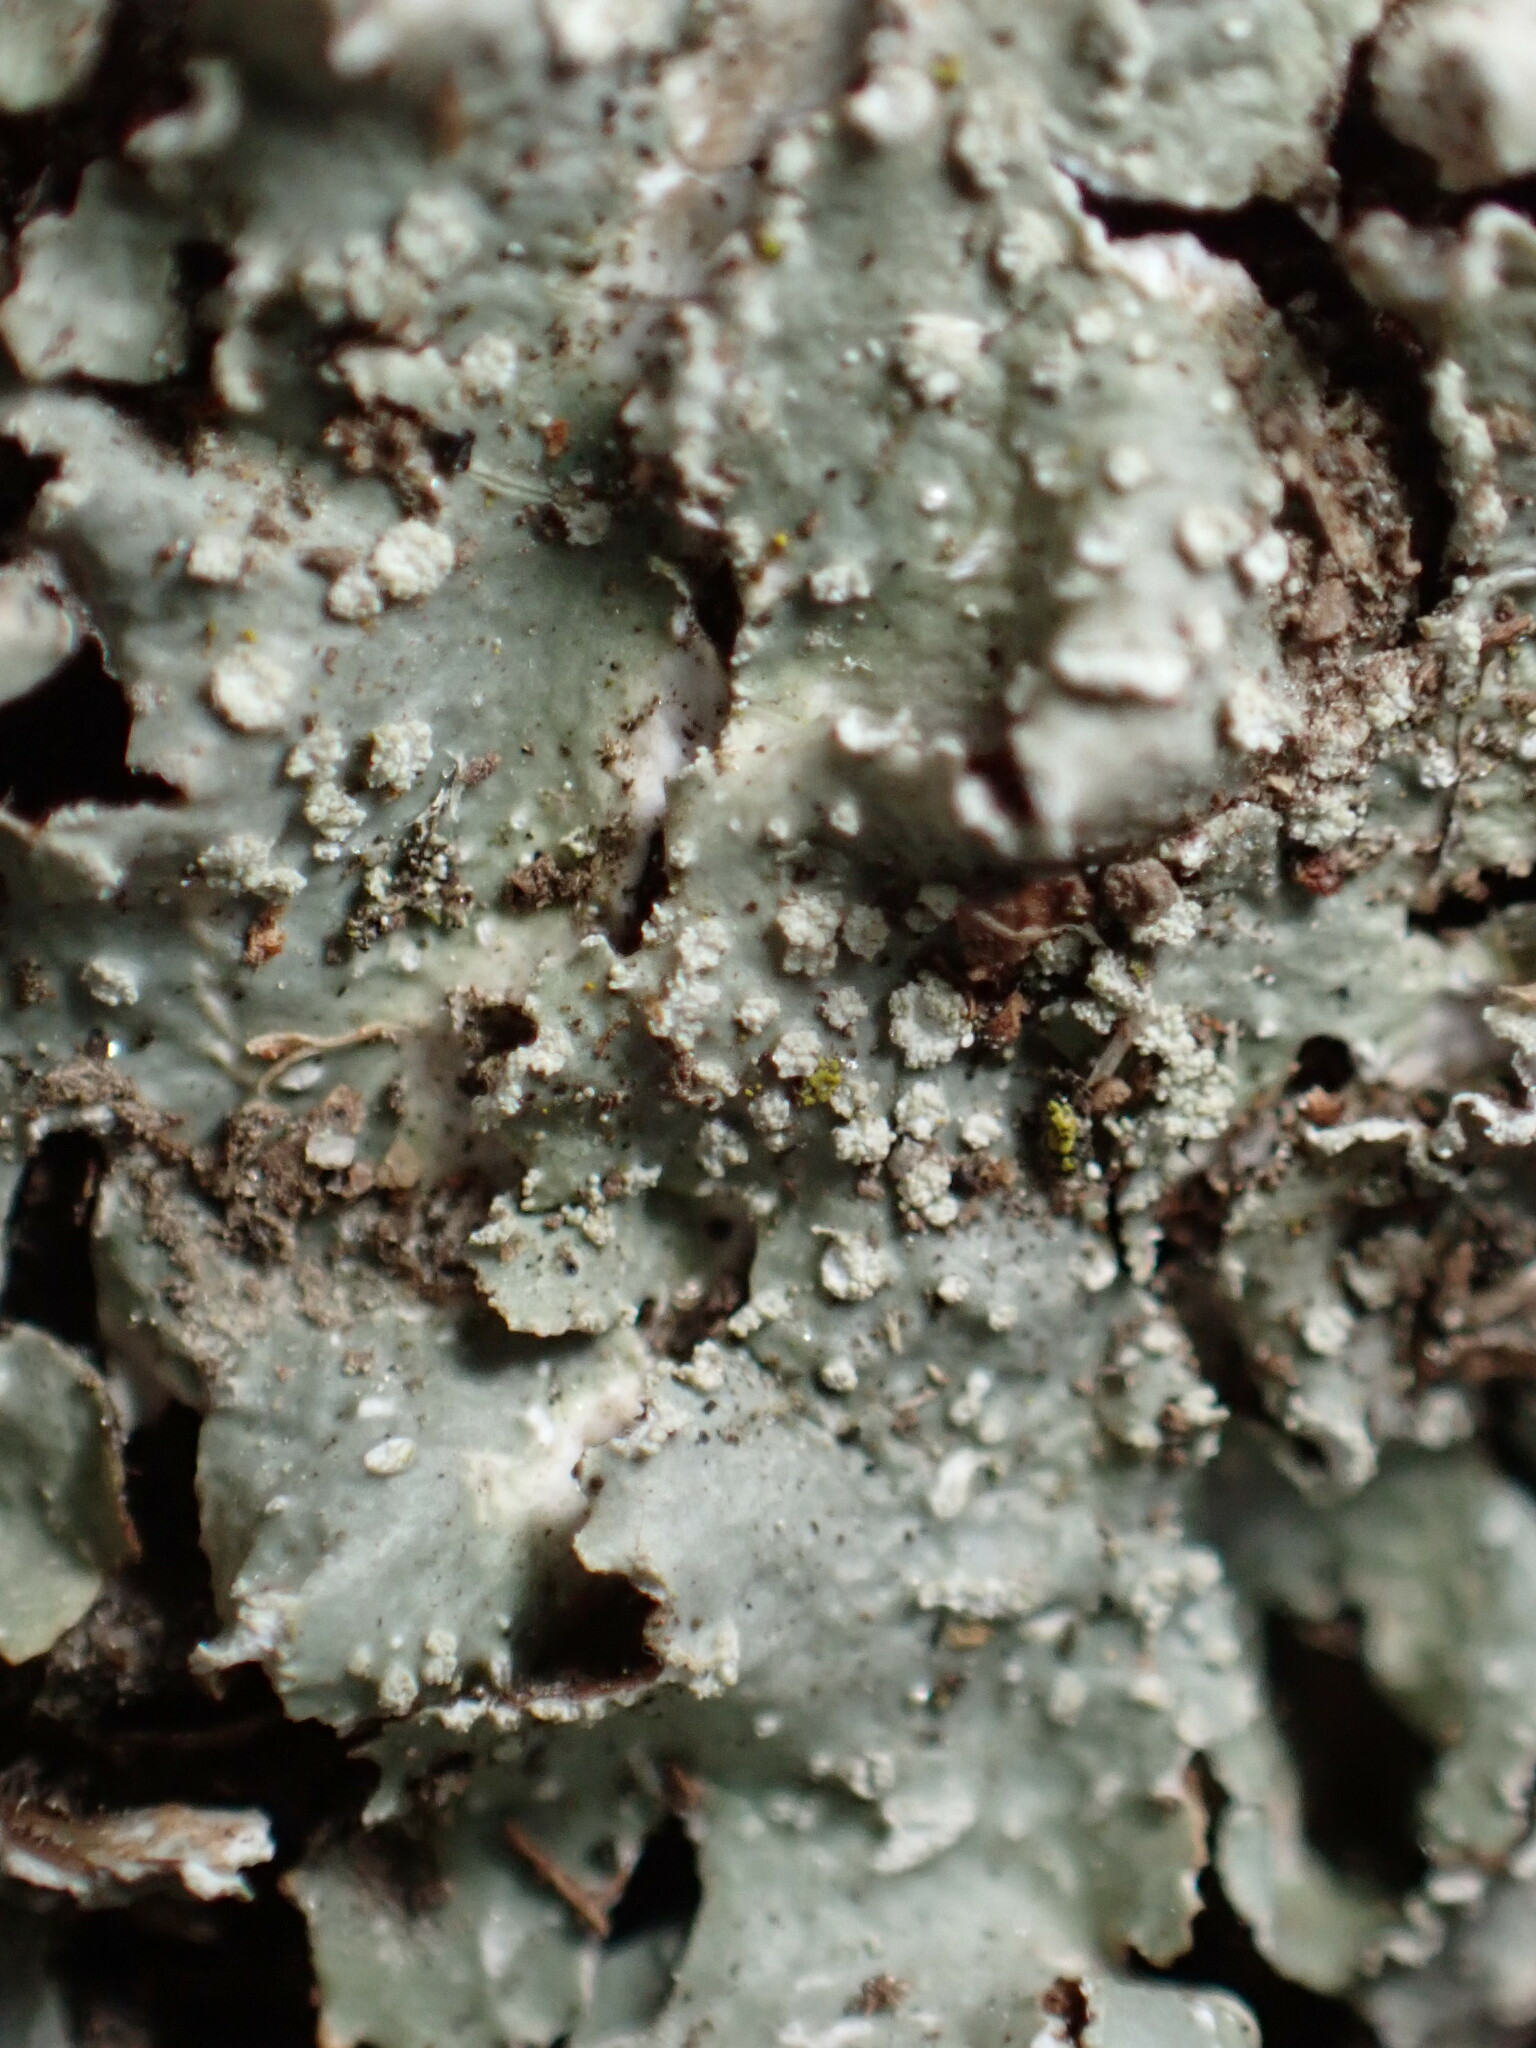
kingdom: Fungi
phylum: Ascomycota
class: Lecanoromycetes
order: Lecanorales
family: Parmeliaceae
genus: Punctelia
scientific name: Punctelia caseana
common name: Moondust speckled lichen
